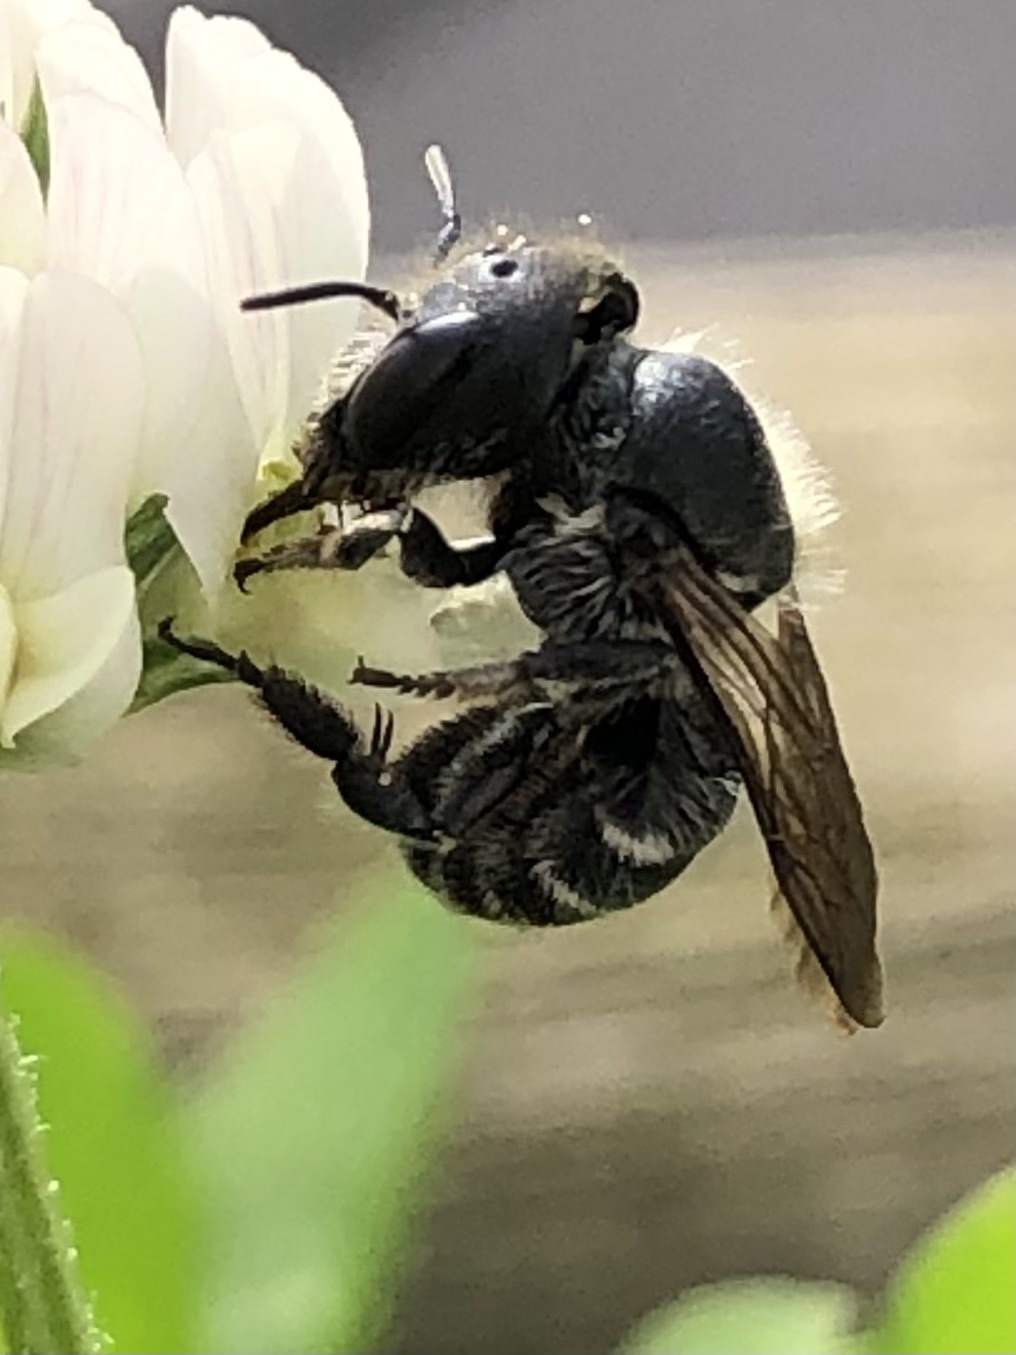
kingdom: Animalia
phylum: Arthropoda
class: Insecta
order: Hymenoptera
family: Megachilidae
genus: Osmia
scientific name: Osmia caerulescens
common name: Blue mason bee
